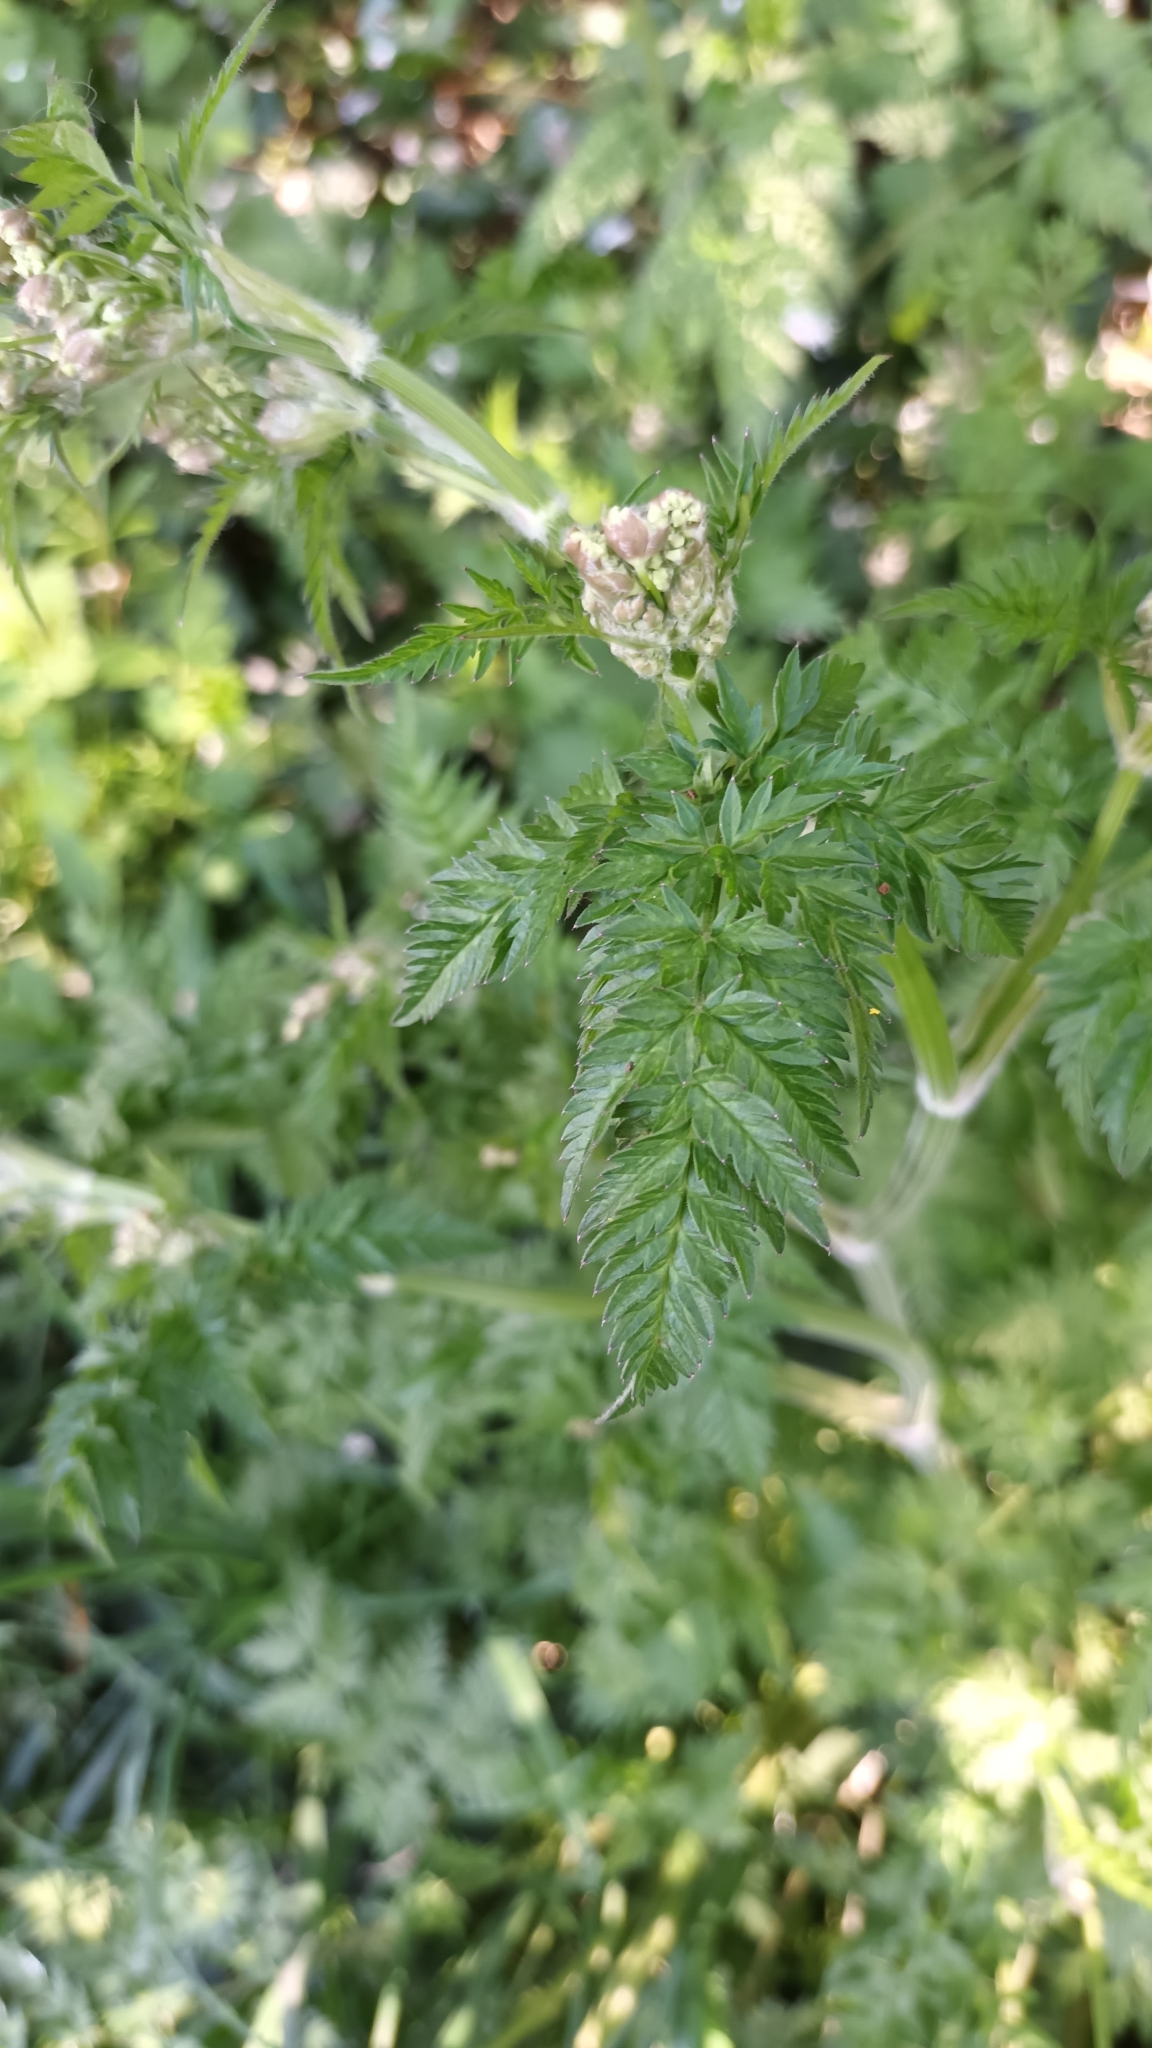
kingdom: Plantae
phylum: Tracheophyta
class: Magnoliopsida
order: Apiales
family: Apiaceae
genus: Anthriscus
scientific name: Anthriscus sylvestris
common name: Cow parsley
